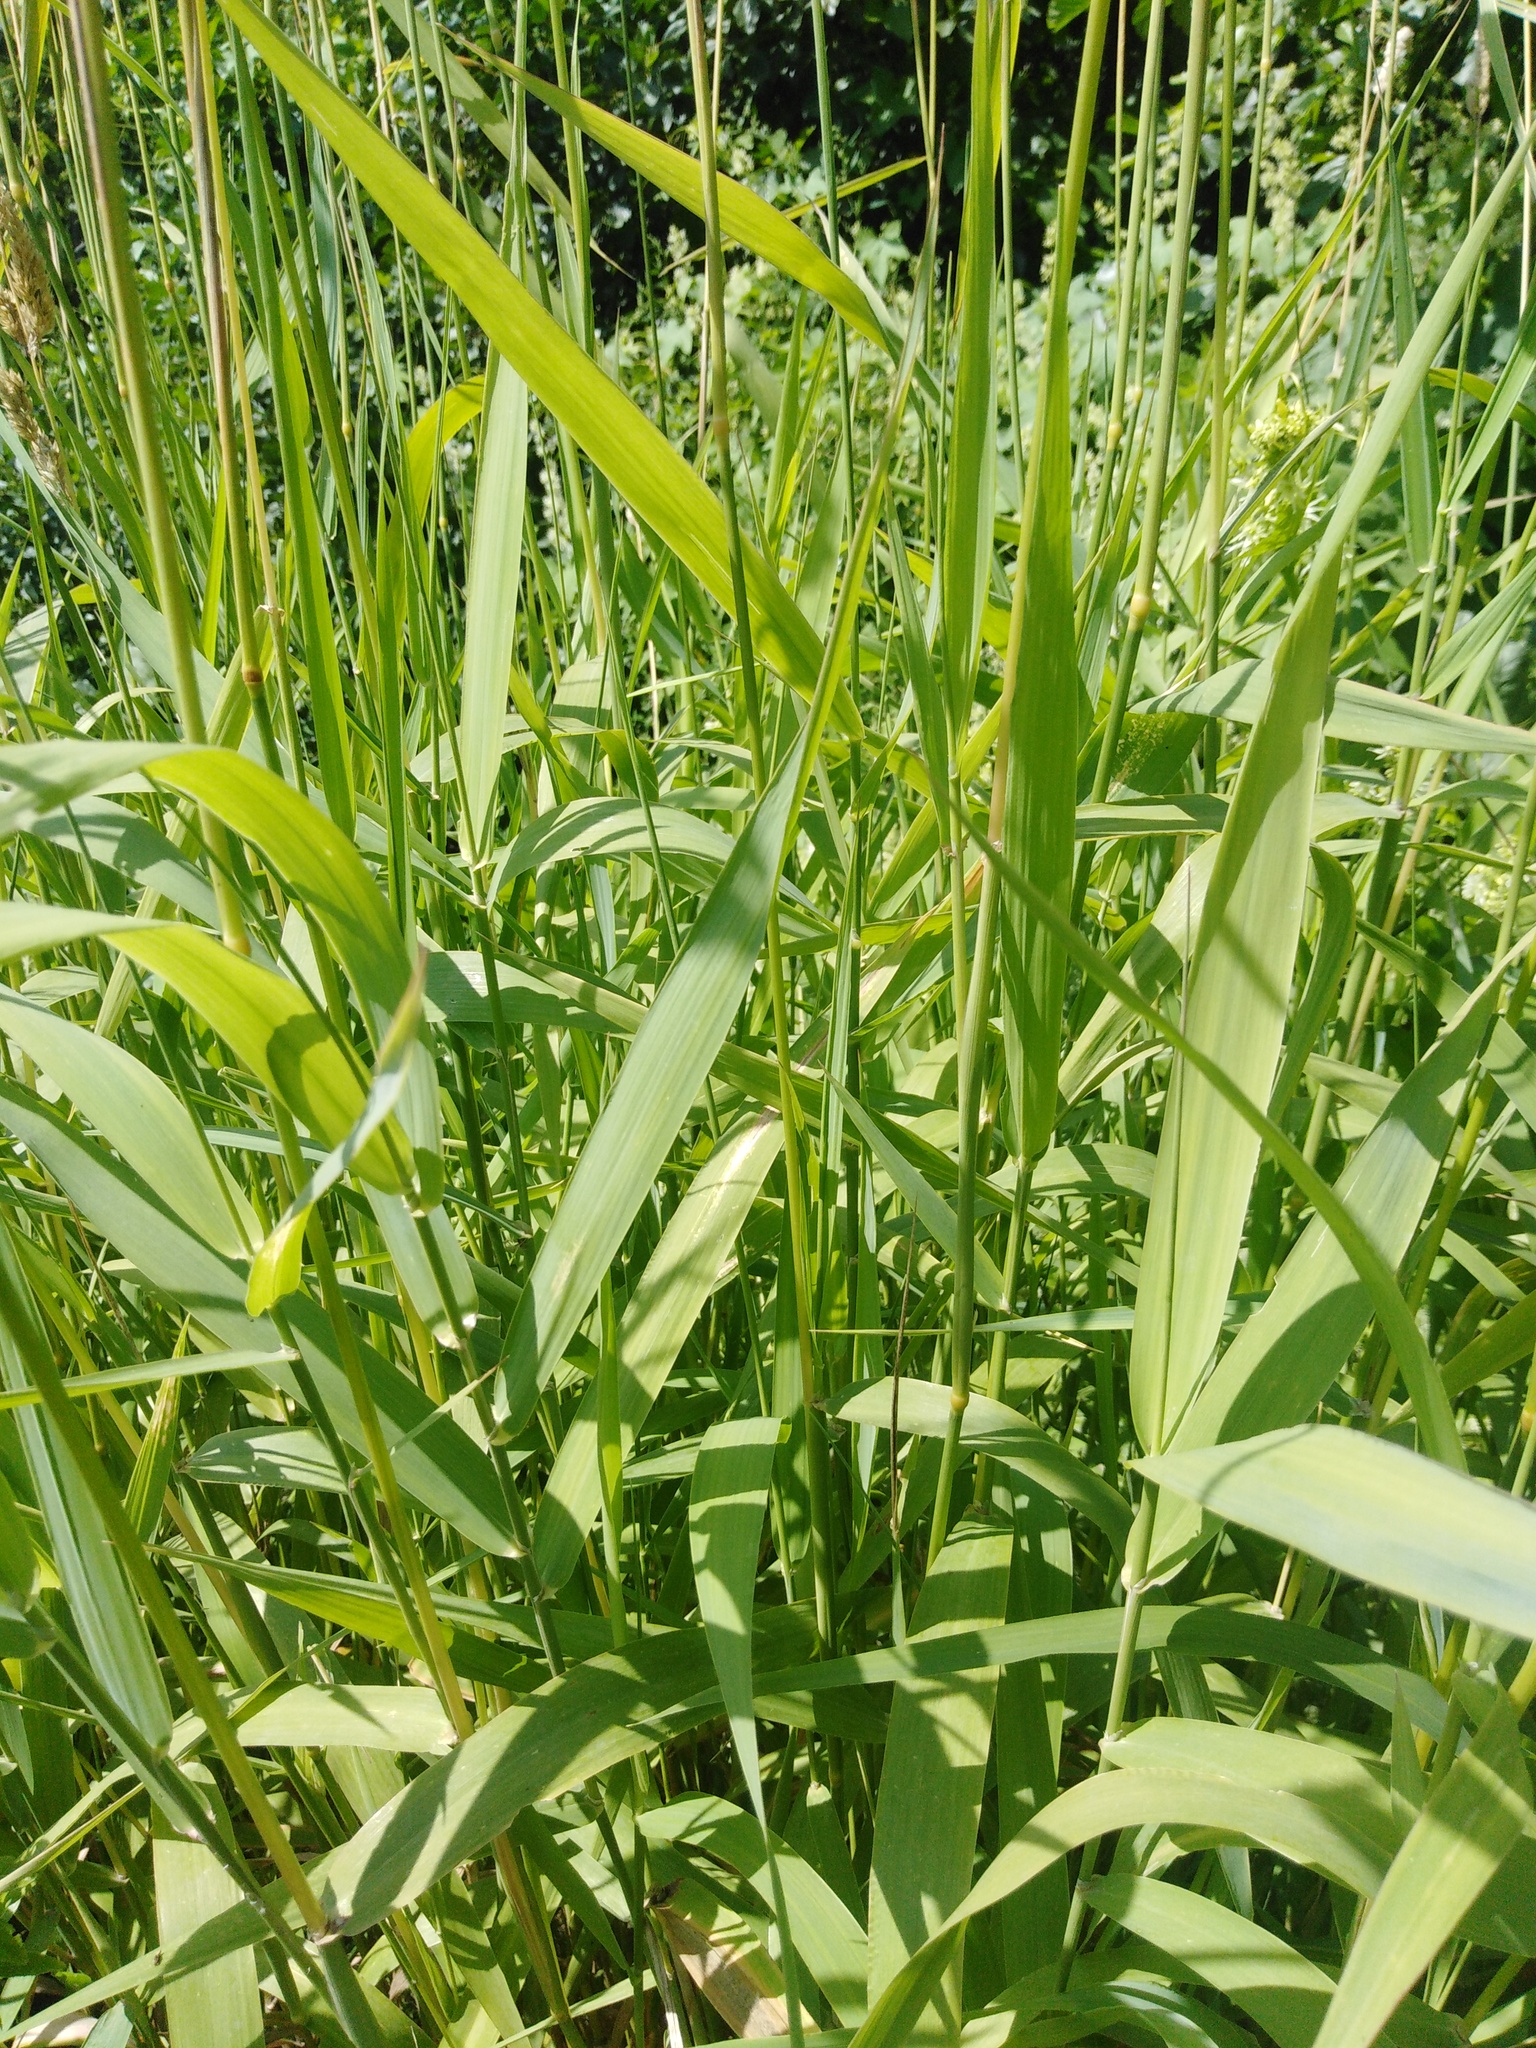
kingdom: Plantae
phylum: Tracheophyta
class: Liliopsida
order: Poales
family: Poaceae
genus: Phalaris
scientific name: Phalaris arundinacea
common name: Reed canary-grass
